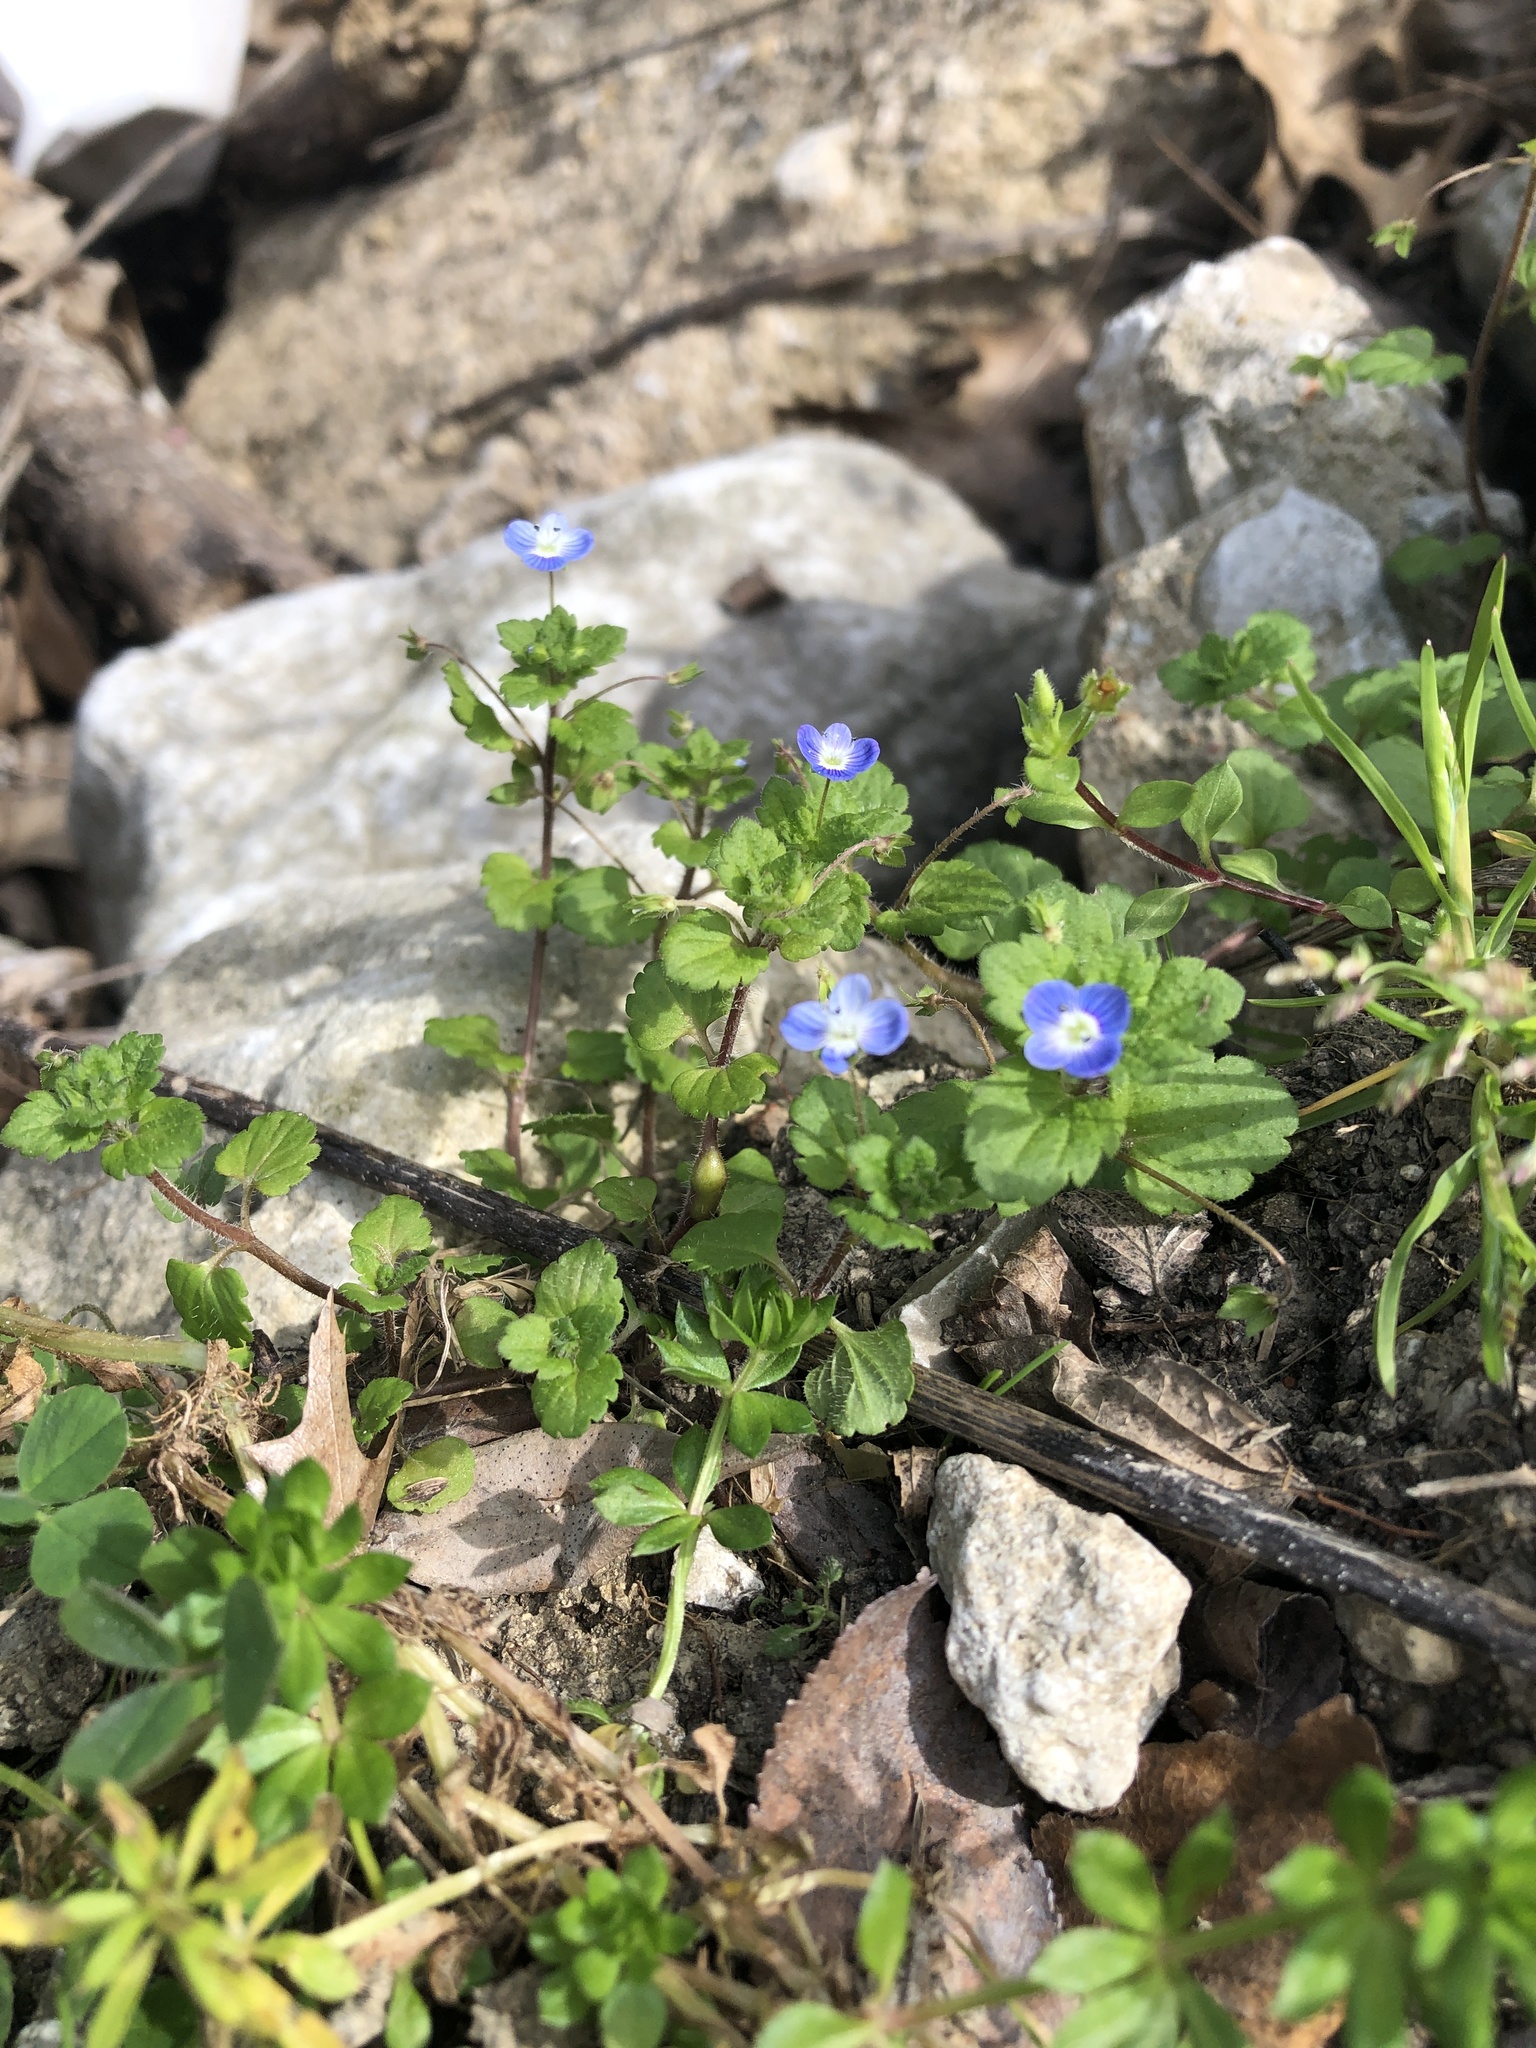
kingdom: Plantae
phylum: Tracheophyta
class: Magnoliopsida
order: Lamiales
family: Plantaginaceae
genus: Veronica
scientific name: Veronica persica
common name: Common field-speedwell
